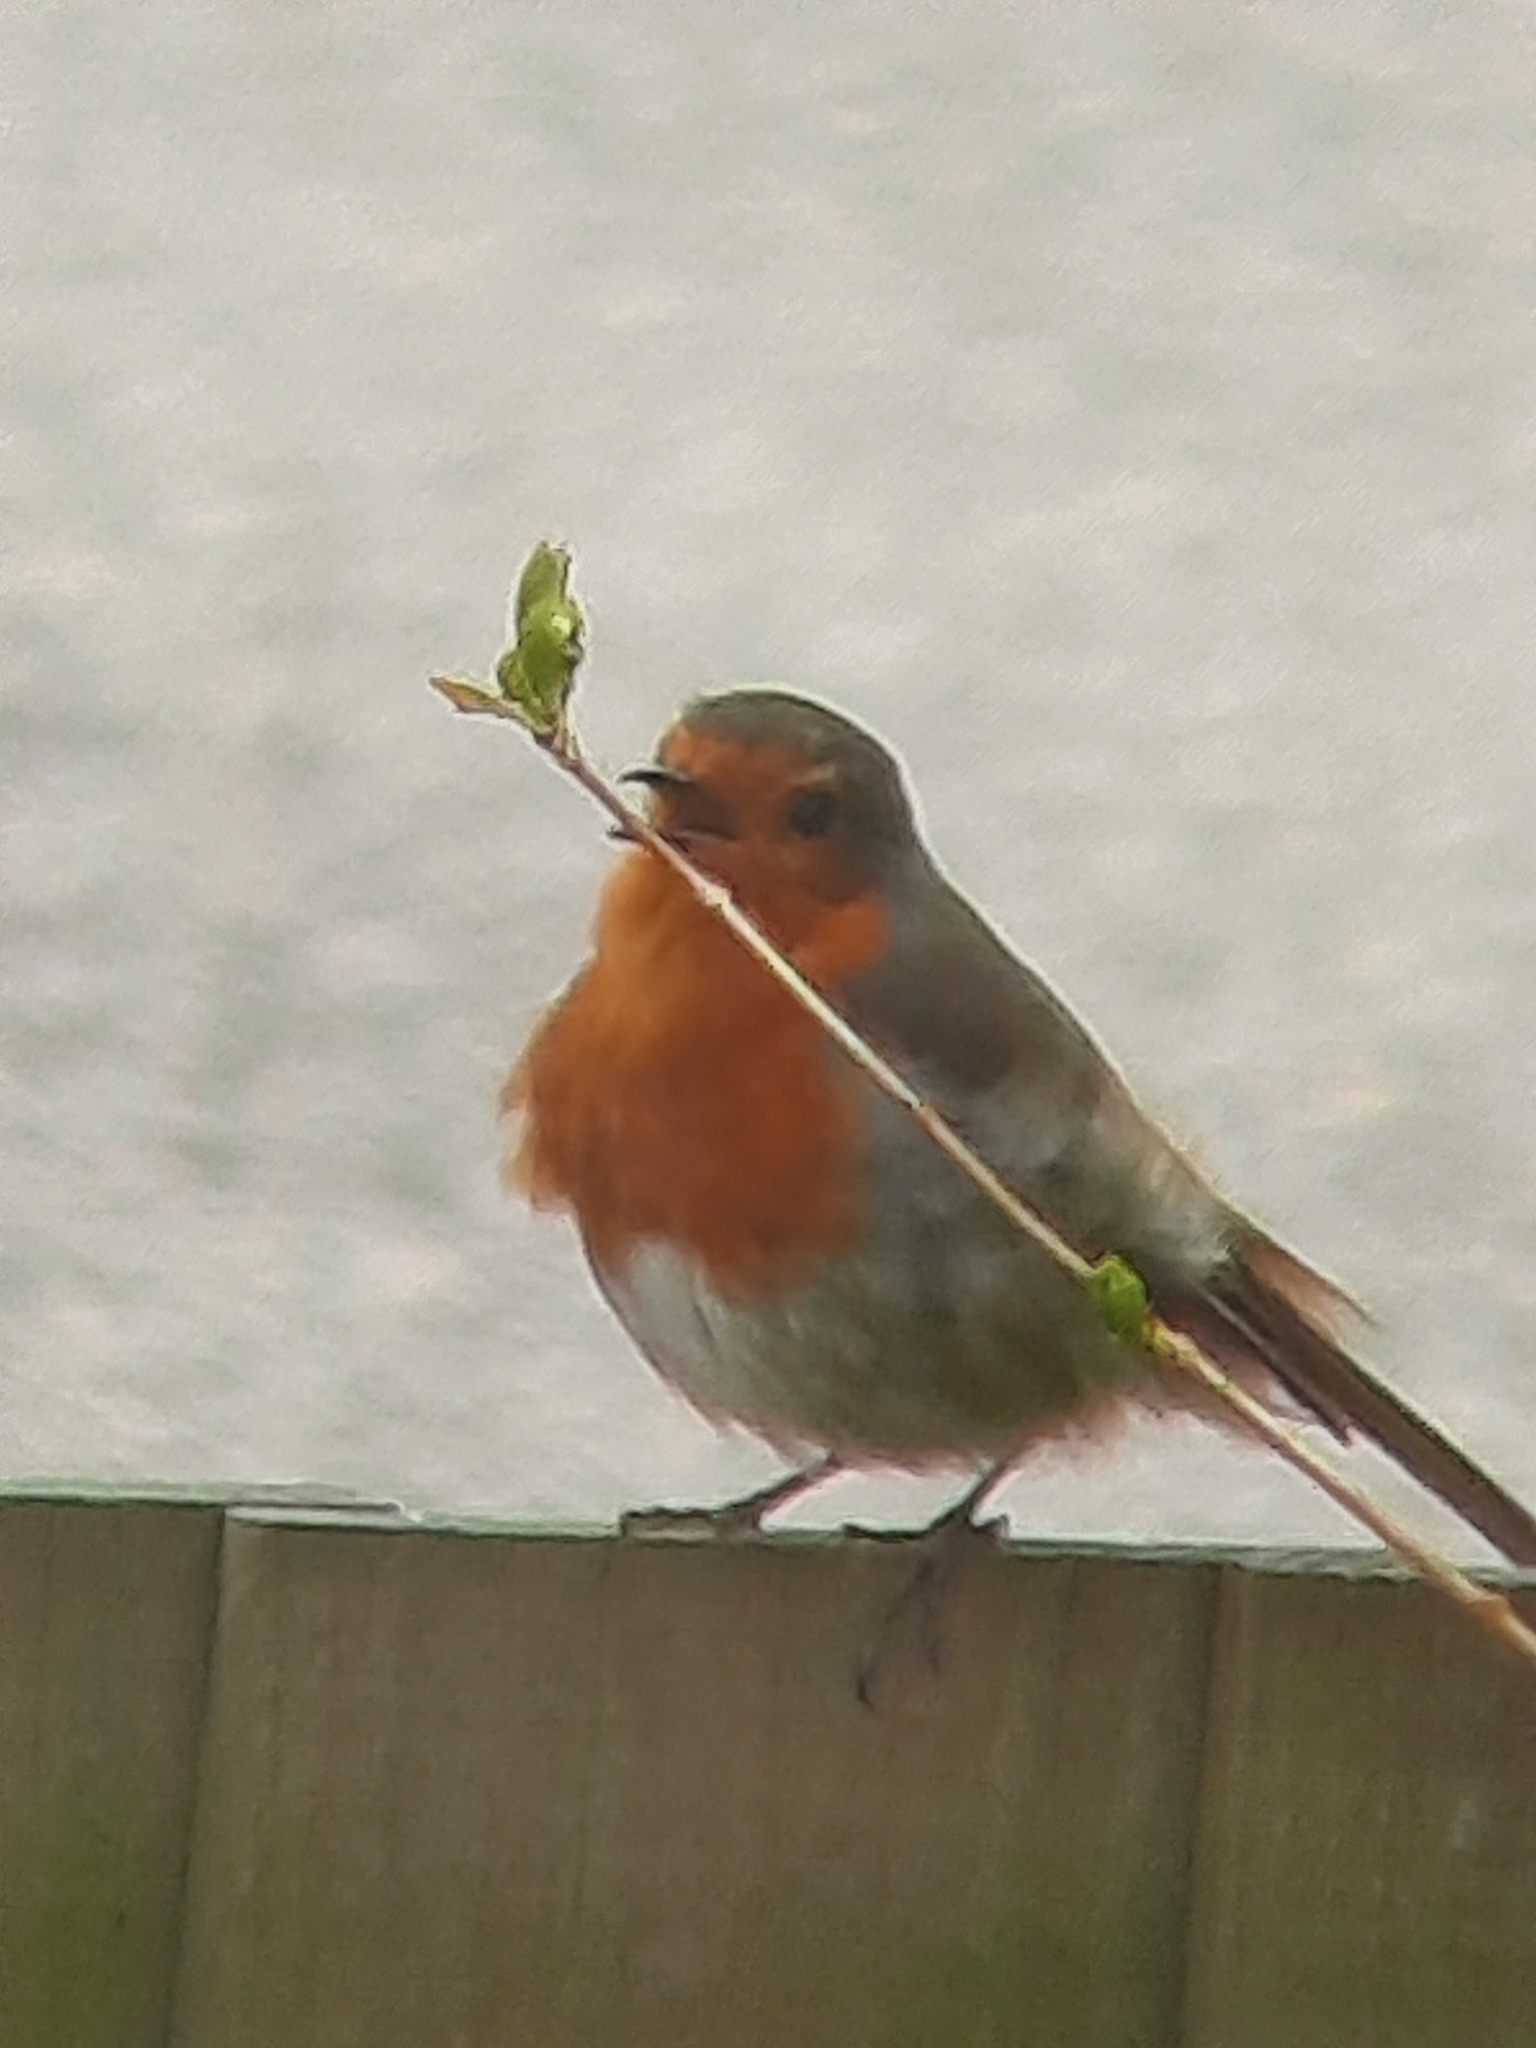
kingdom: Animalia
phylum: Chordata
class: Aves
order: Passeriformes
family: Muscicapidae
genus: Erithacus
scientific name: Erithacus rubecula
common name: European robin
